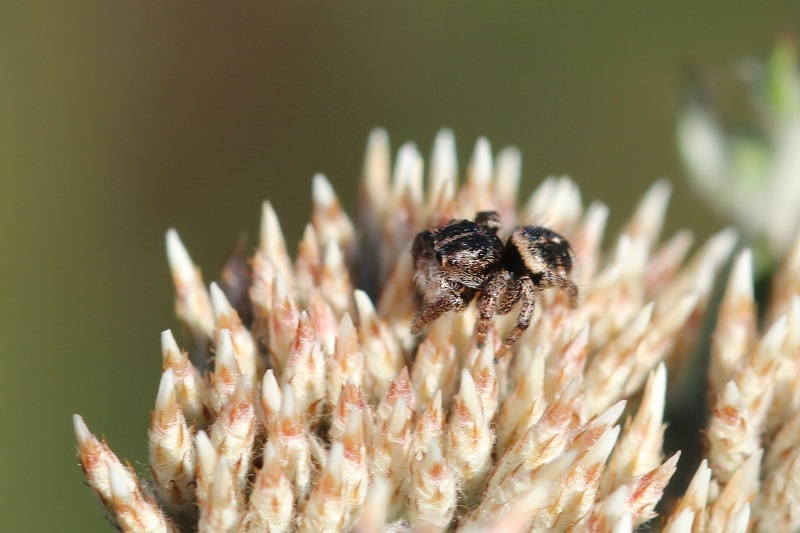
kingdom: Animalia
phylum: Arthropoda
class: Arachnida
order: Araneae
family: Salticidae
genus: Baryphas
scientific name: Baryphas ahenus
